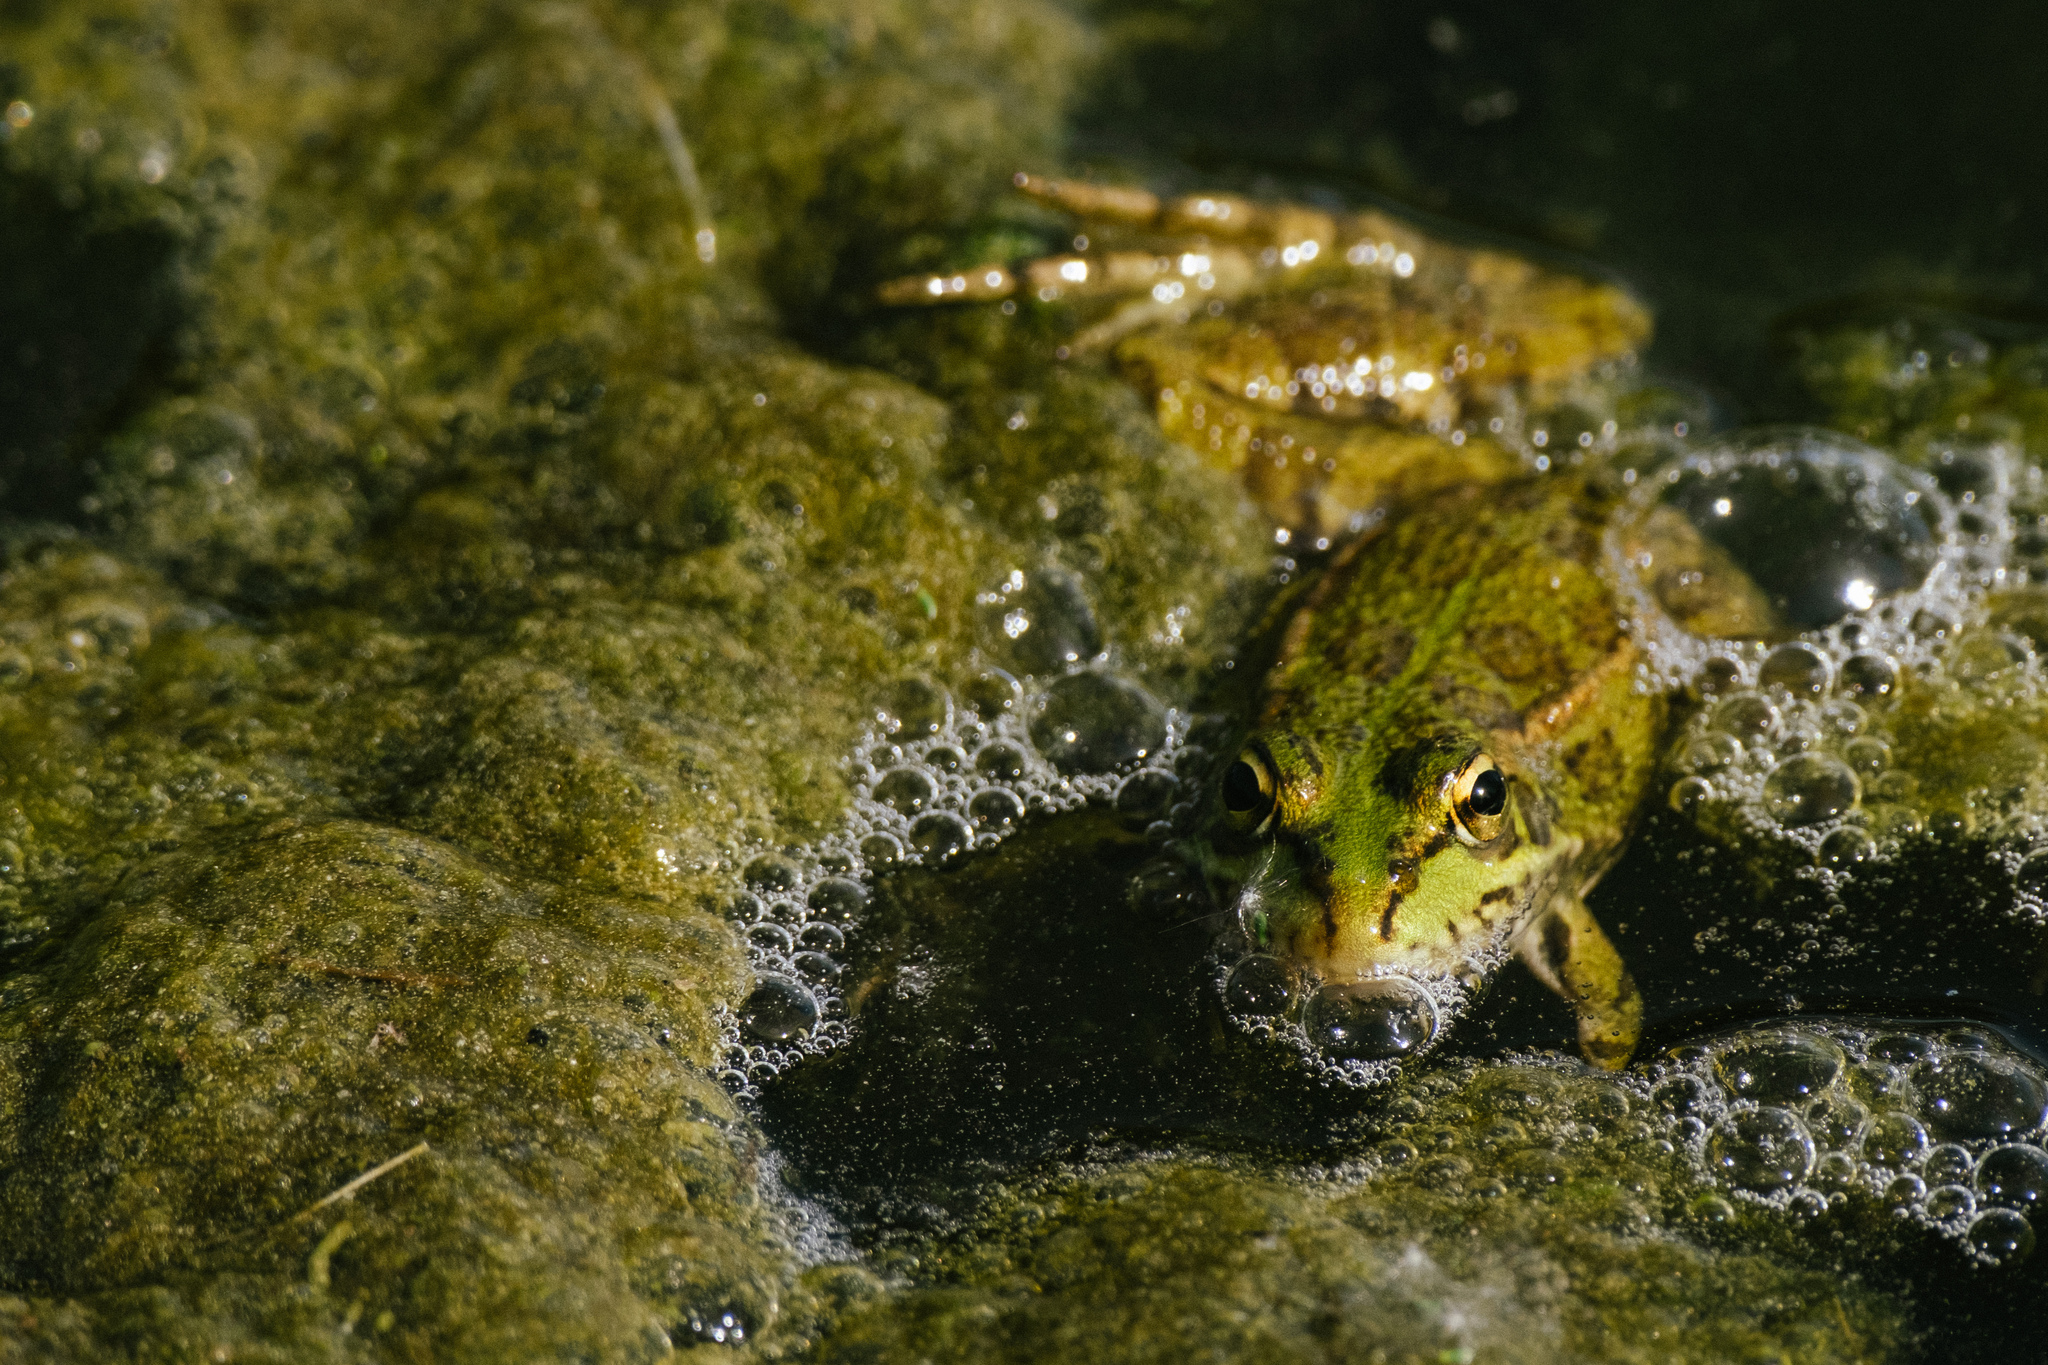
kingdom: Animalia
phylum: Chordata
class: Amphibia
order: Anura
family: Ranidae
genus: Pelophylax
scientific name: Pelophylax perezi
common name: Perez's frog
